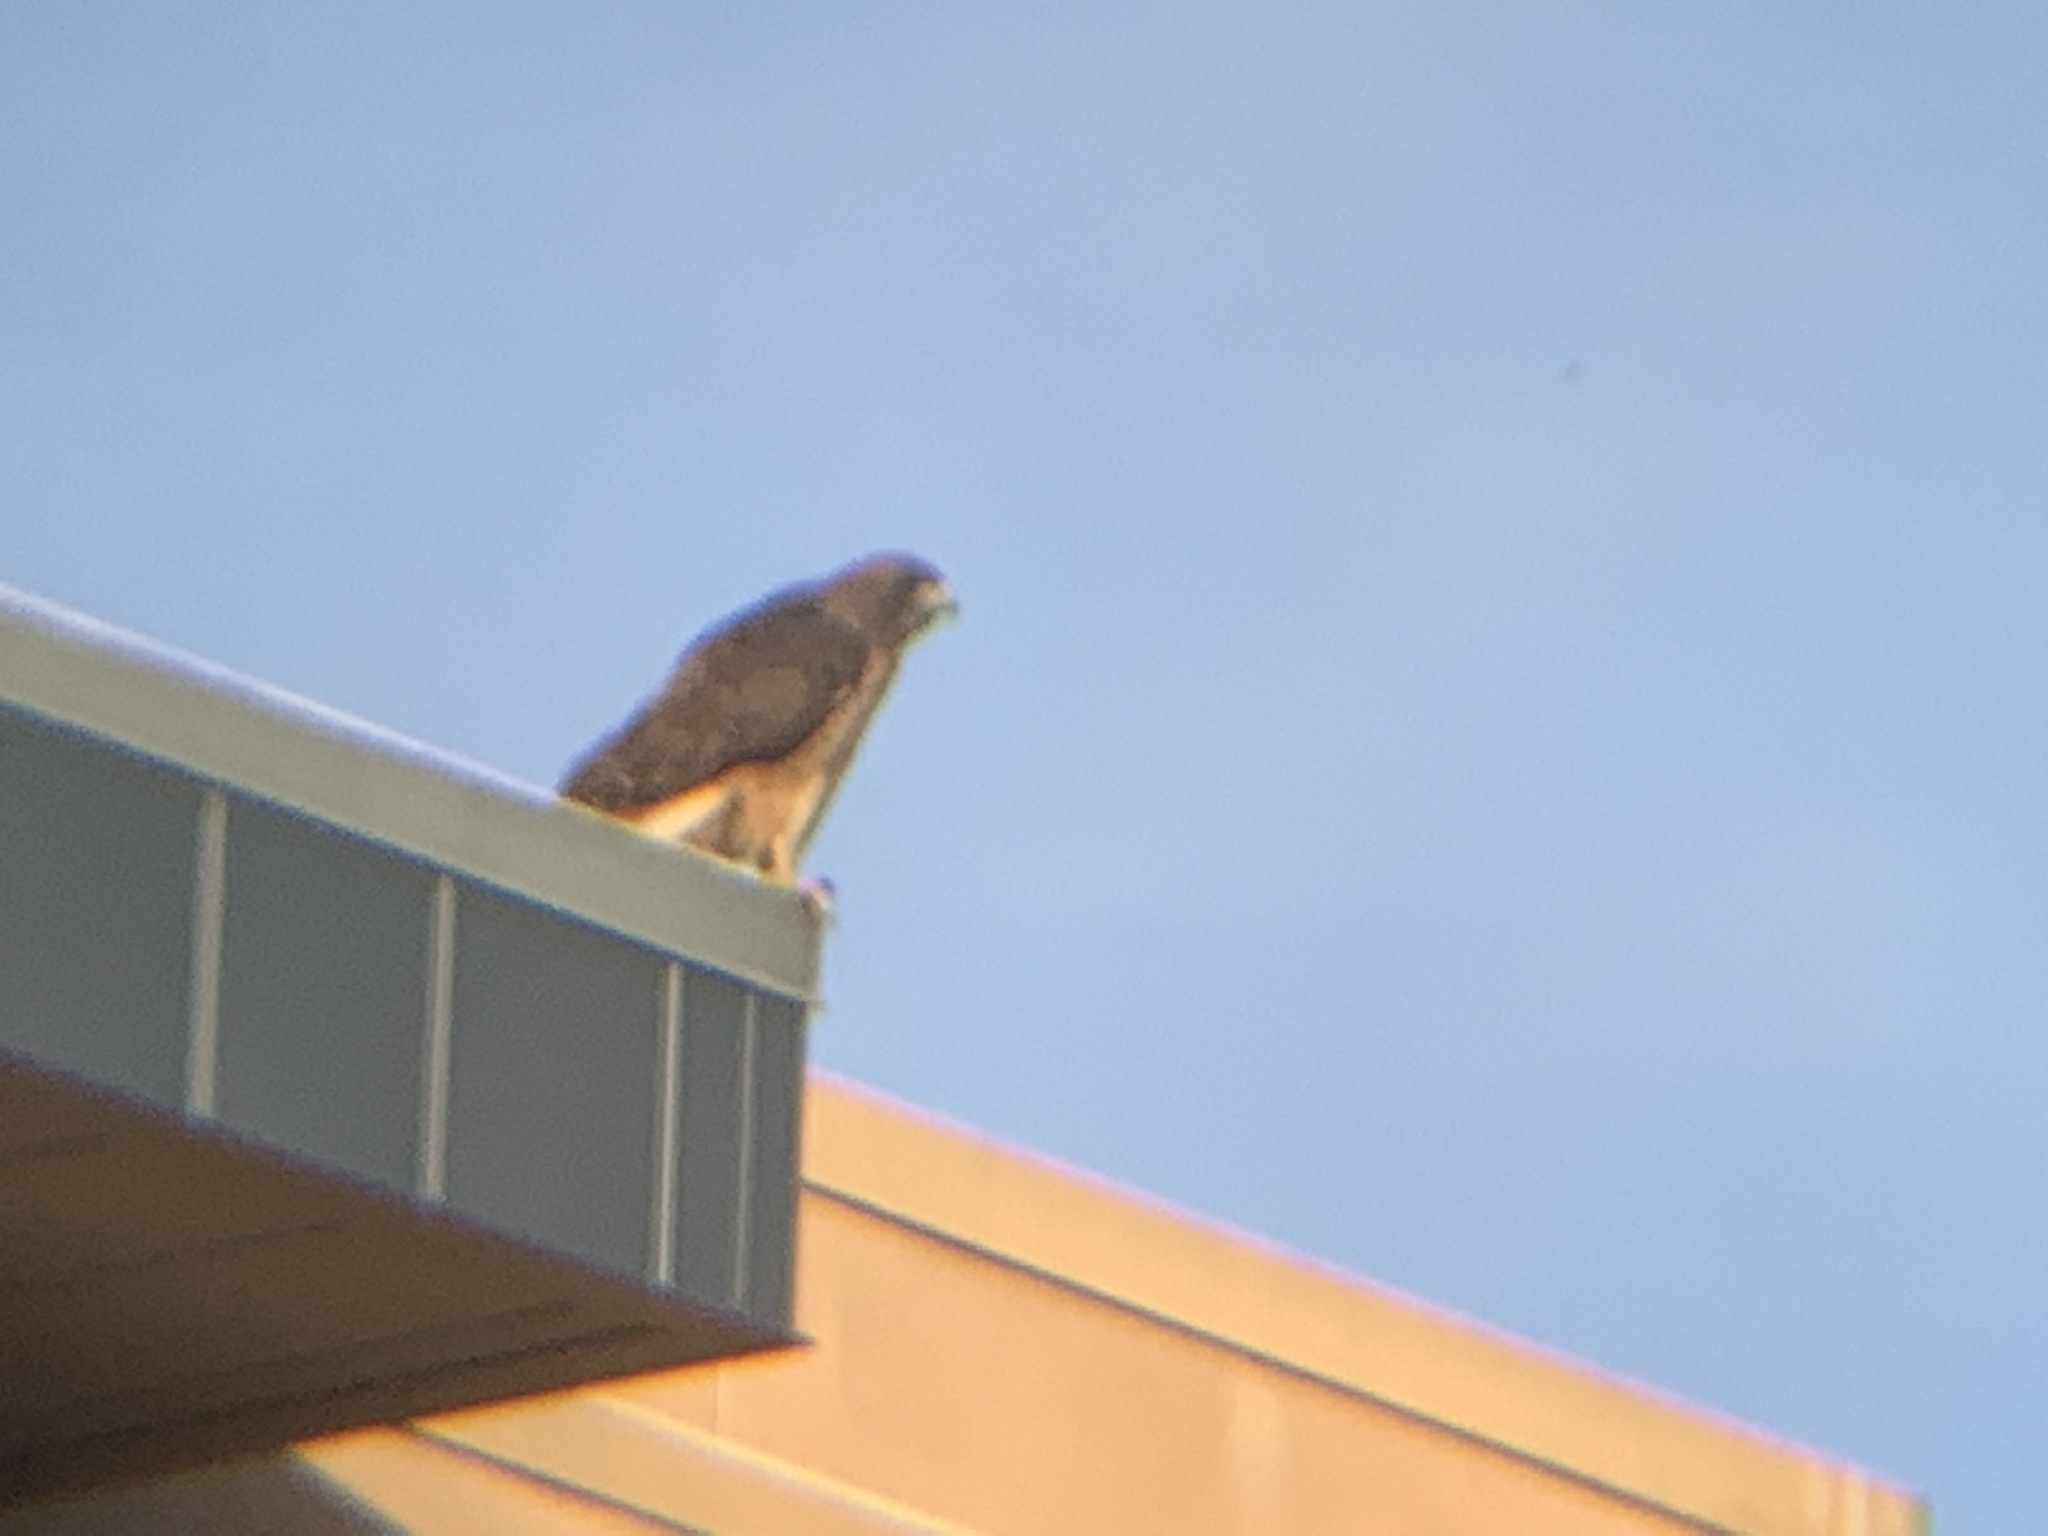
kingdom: Animalia
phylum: Chordata
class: Aves
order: Accipitriformes
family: Accipitridae
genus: Buteo
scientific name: Buteo jamaicensis
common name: Red-tailed hawk
